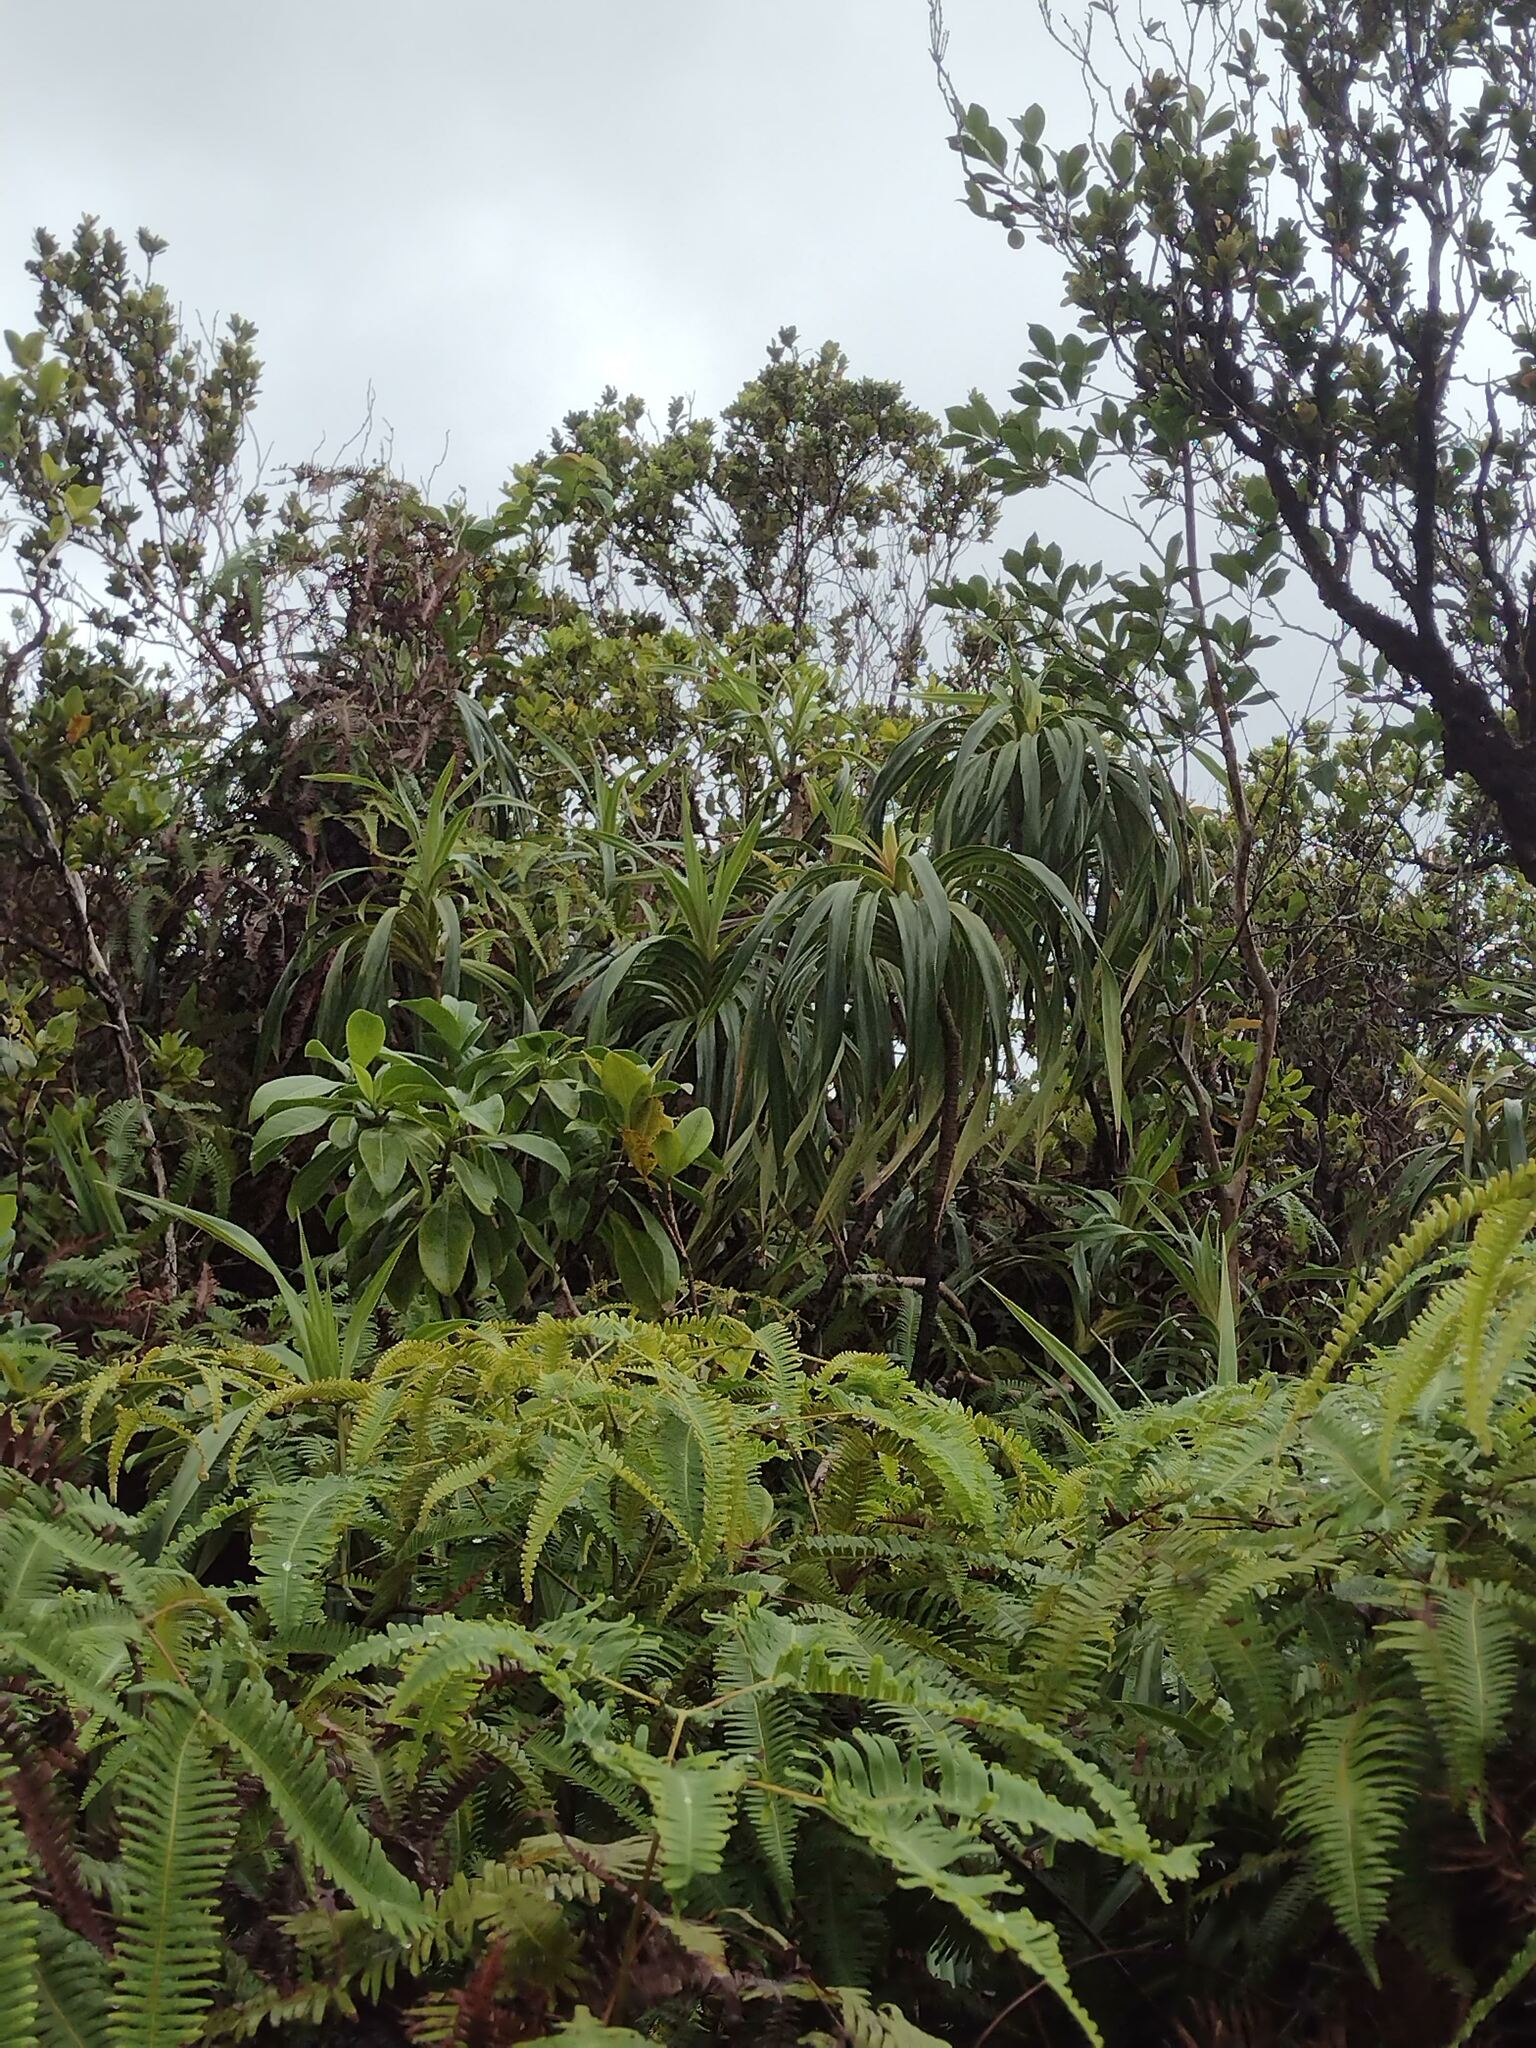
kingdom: Plantae
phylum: Tracheophyta
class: Liliopsida
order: Pandanales
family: Pandanaceae
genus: Freycinetia
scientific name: Freycinetia arborea
